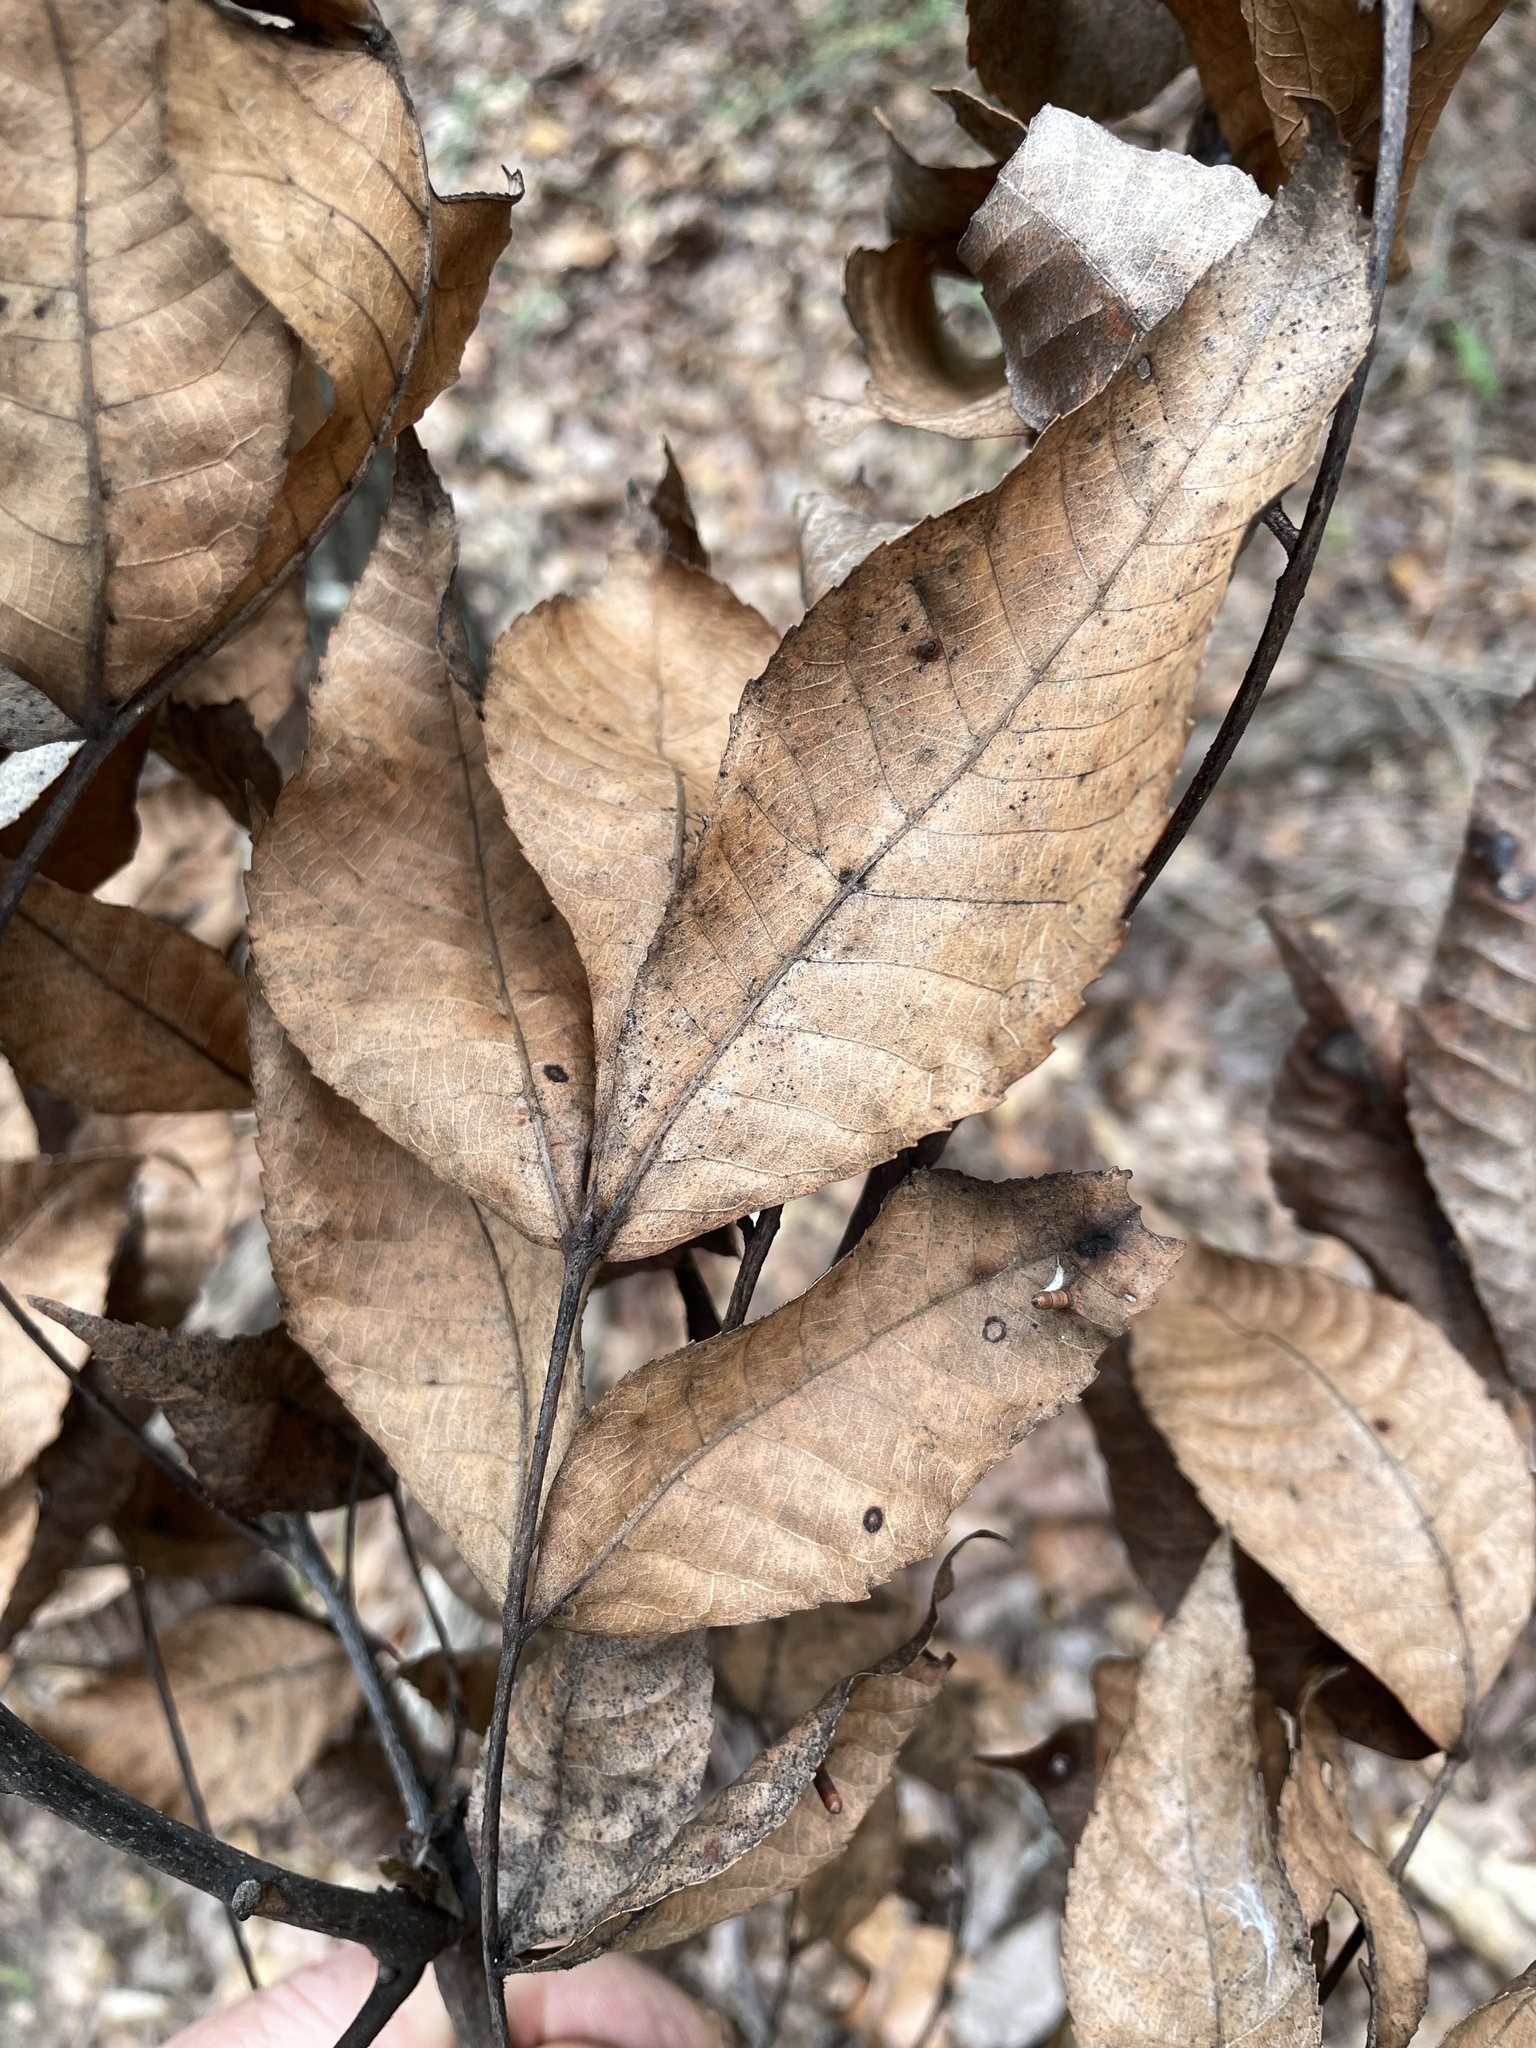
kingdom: Plantae
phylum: Tracheophyta
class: Magnoliopsida
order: Fagales
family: Juglandaceae
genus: Carya
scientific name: Carya texana
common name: Black hickory
